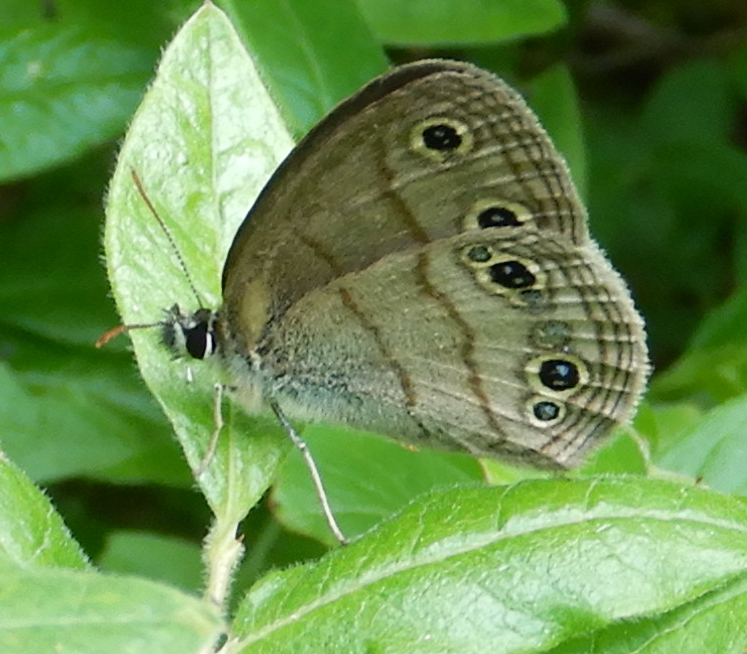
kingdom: Animalia
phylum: Arthropoda
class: Insecta
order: Lepidoptera
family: Nymphalidae
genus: Euptychia
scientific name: Euptychia cymela
